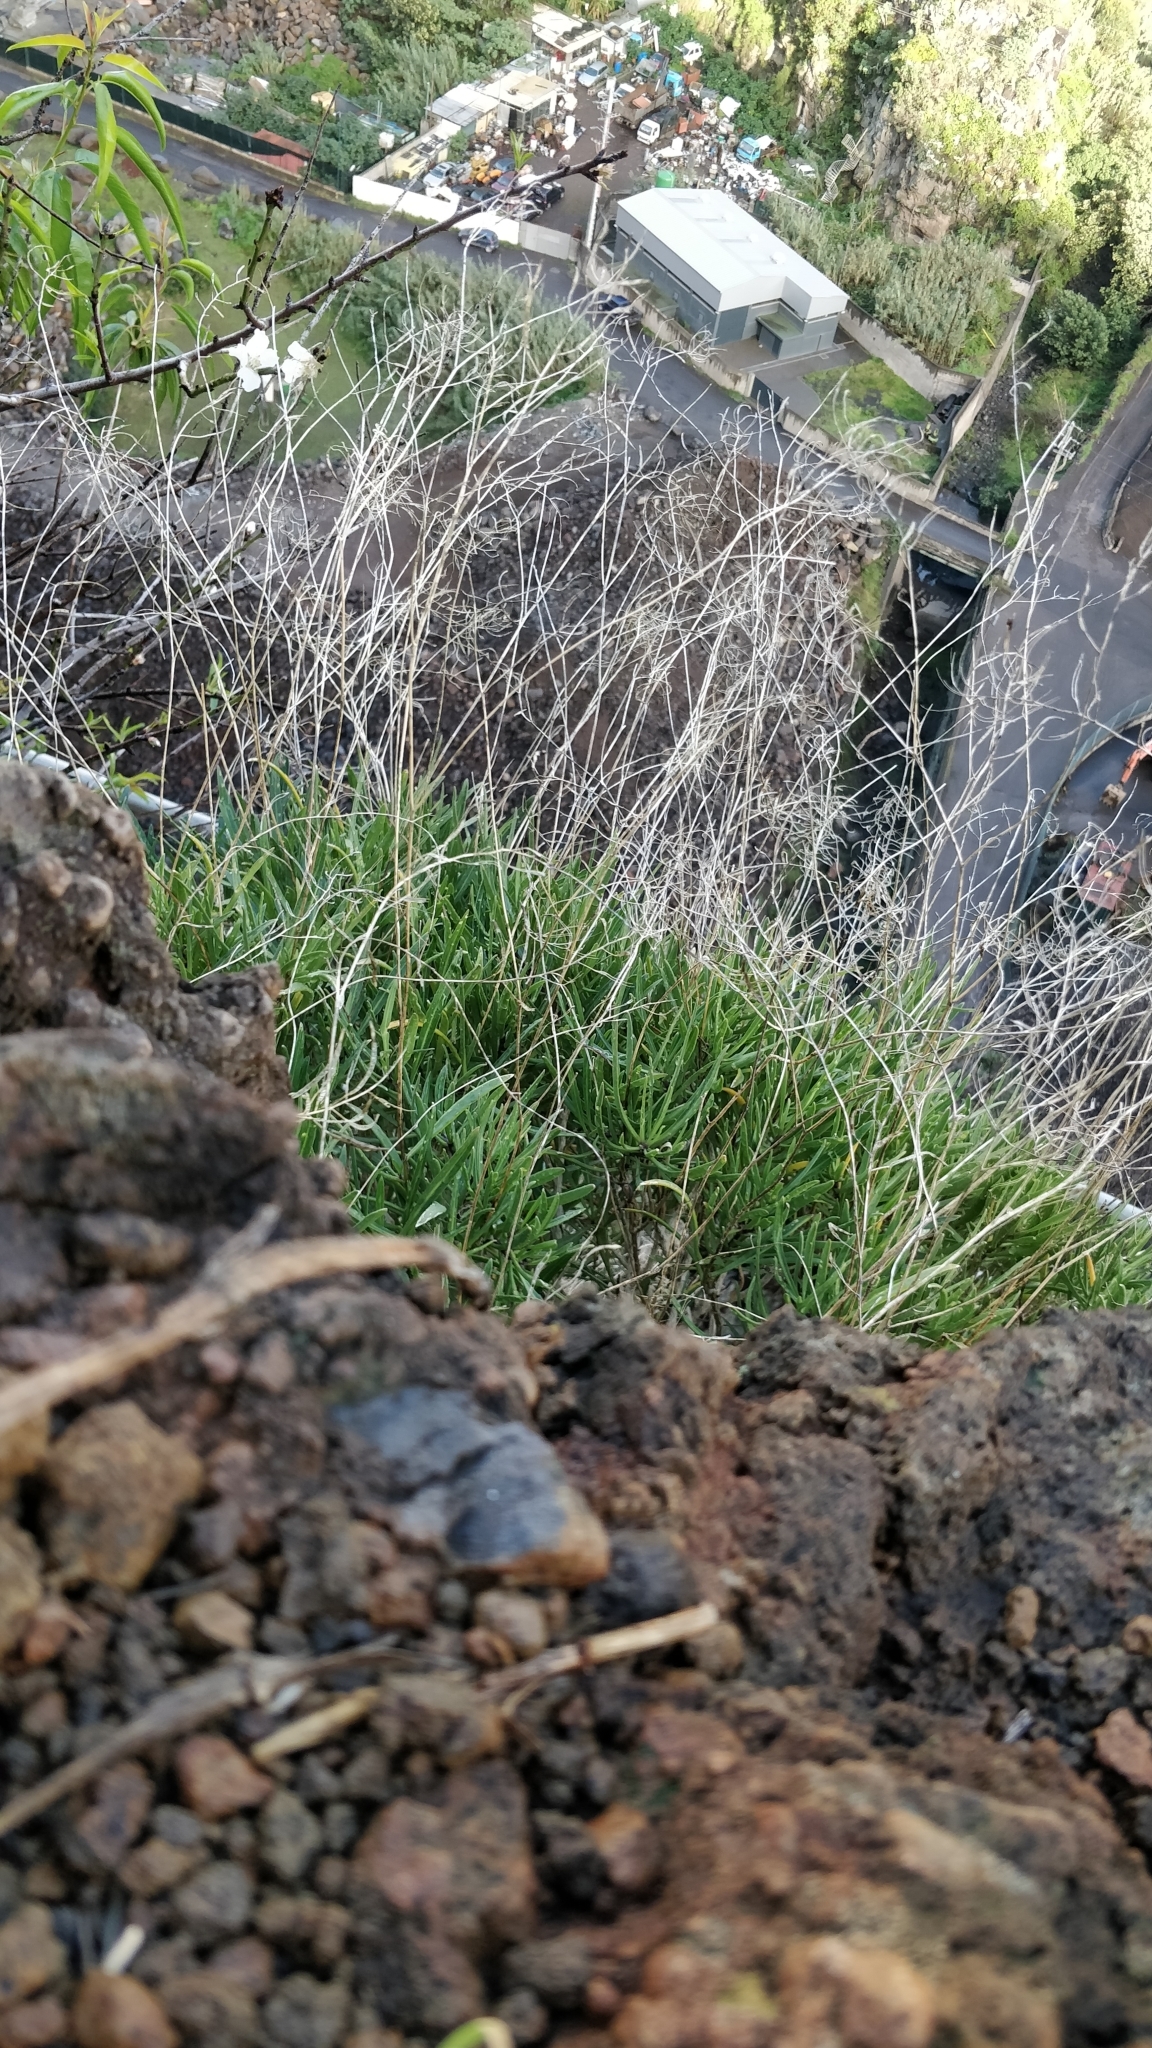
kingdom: Plantae
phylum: Tracheophyta
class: Magnoliopsida
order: Brassicales
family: Brassicaceae
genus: Sinapidendron
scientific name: Sinapidendron angustifolium
